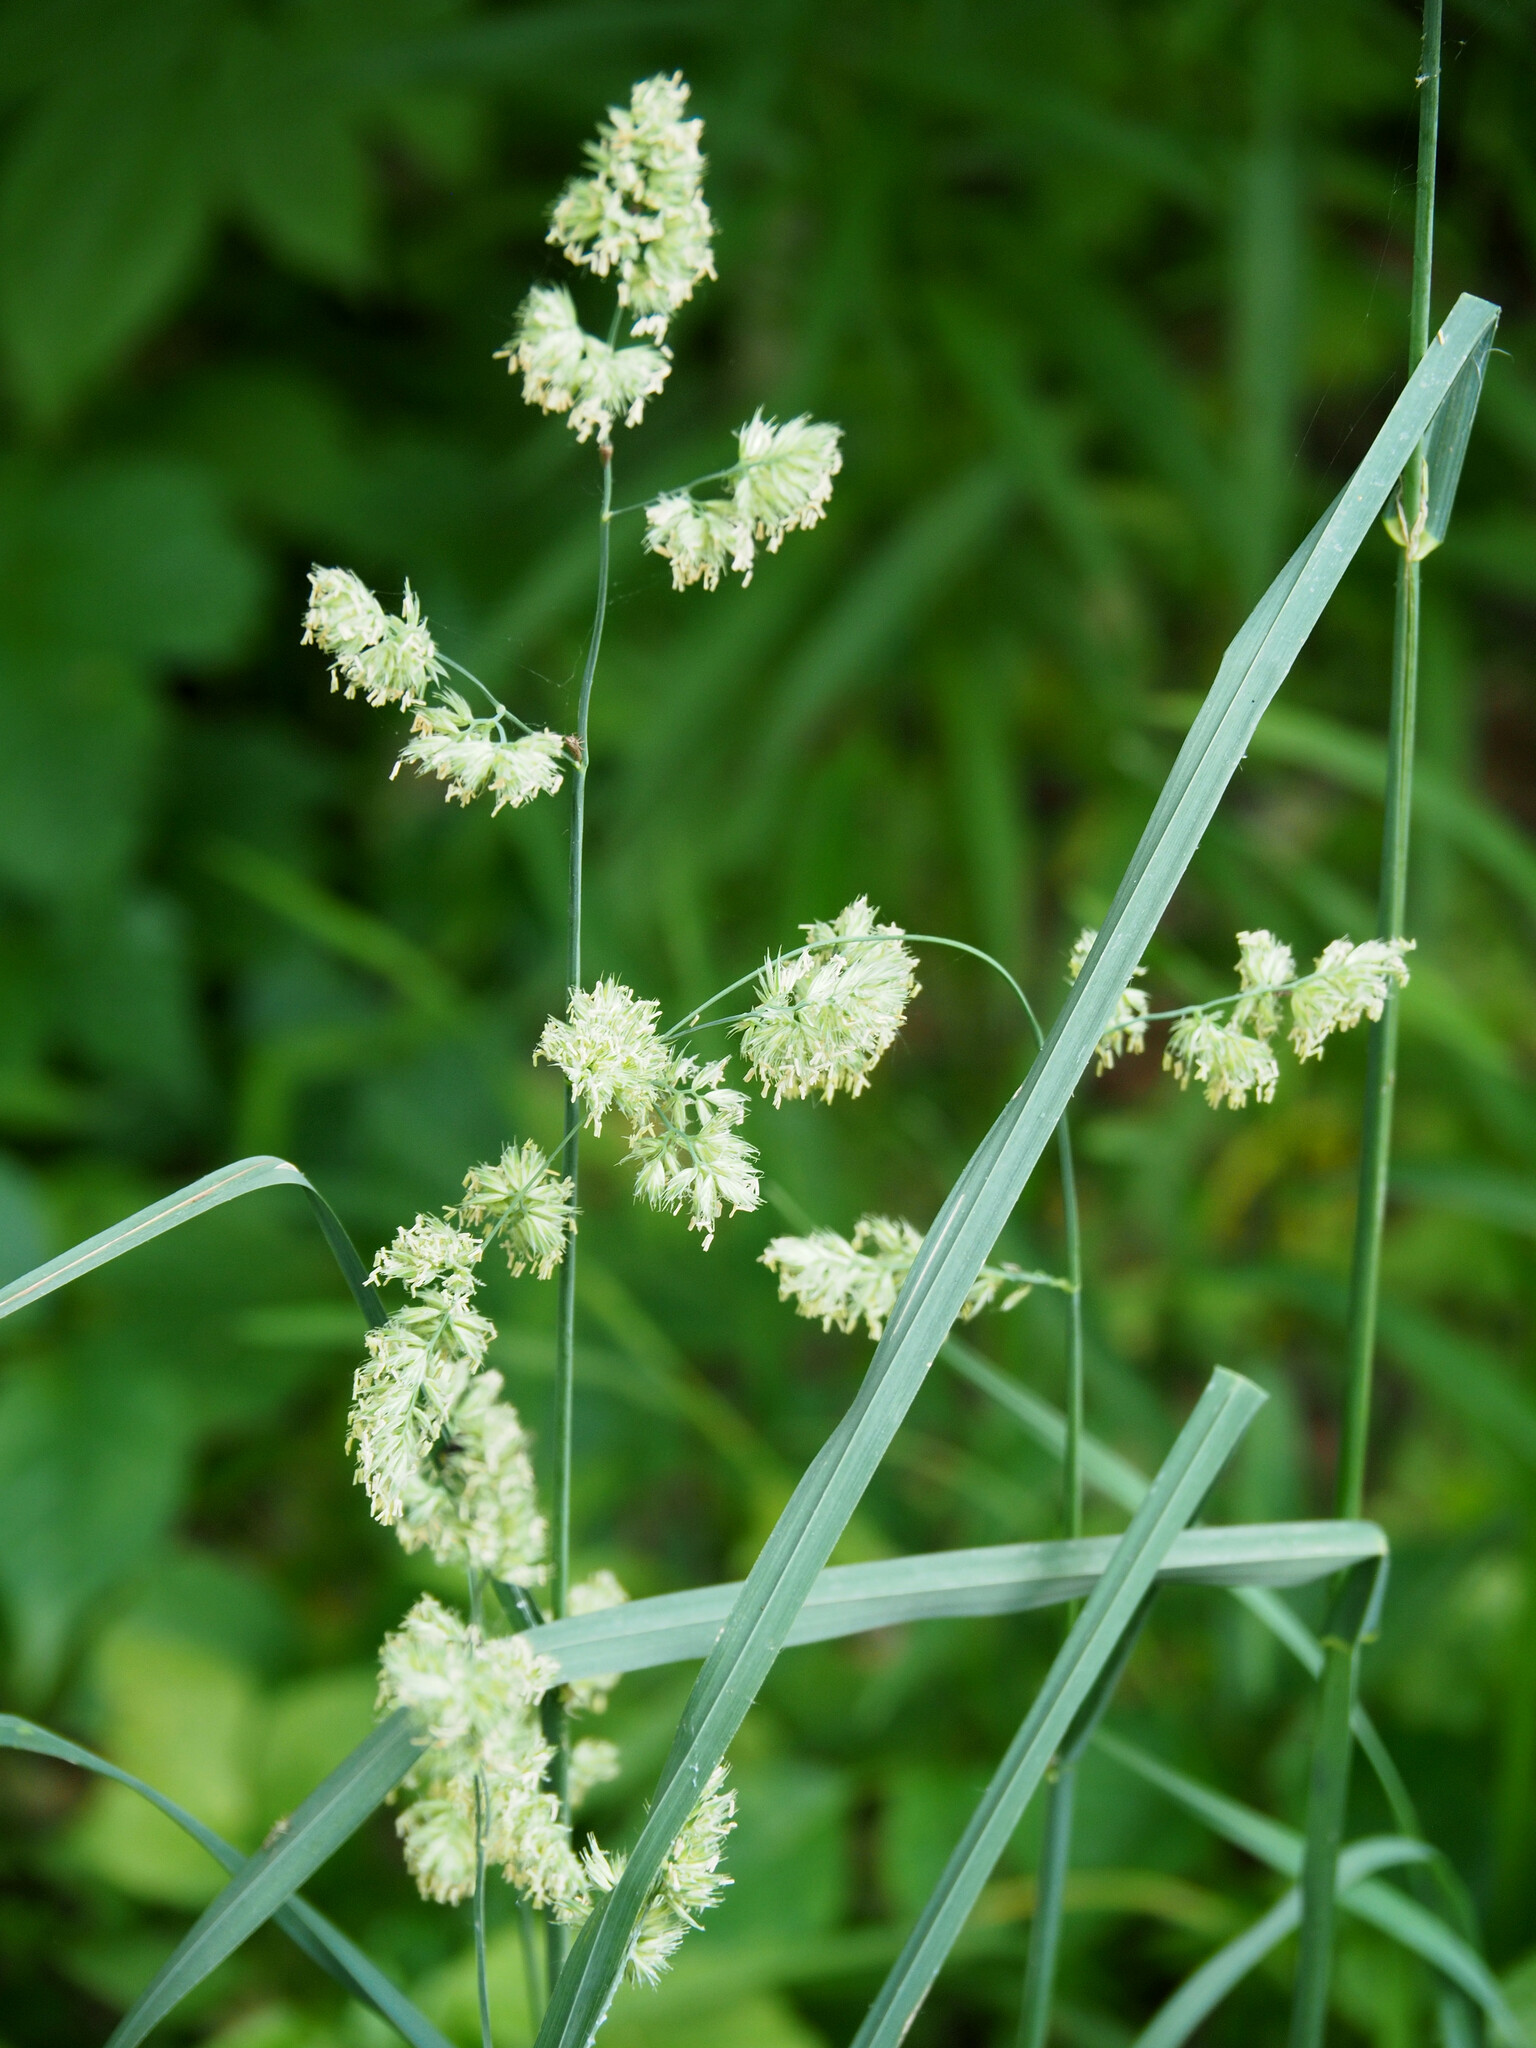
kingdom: Plantae
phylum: Tracheophyta
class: Liliopsida
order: Poales
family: Poaceae
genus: Dactylis
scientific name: Dactylis glomerata
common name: Orchardgrass
